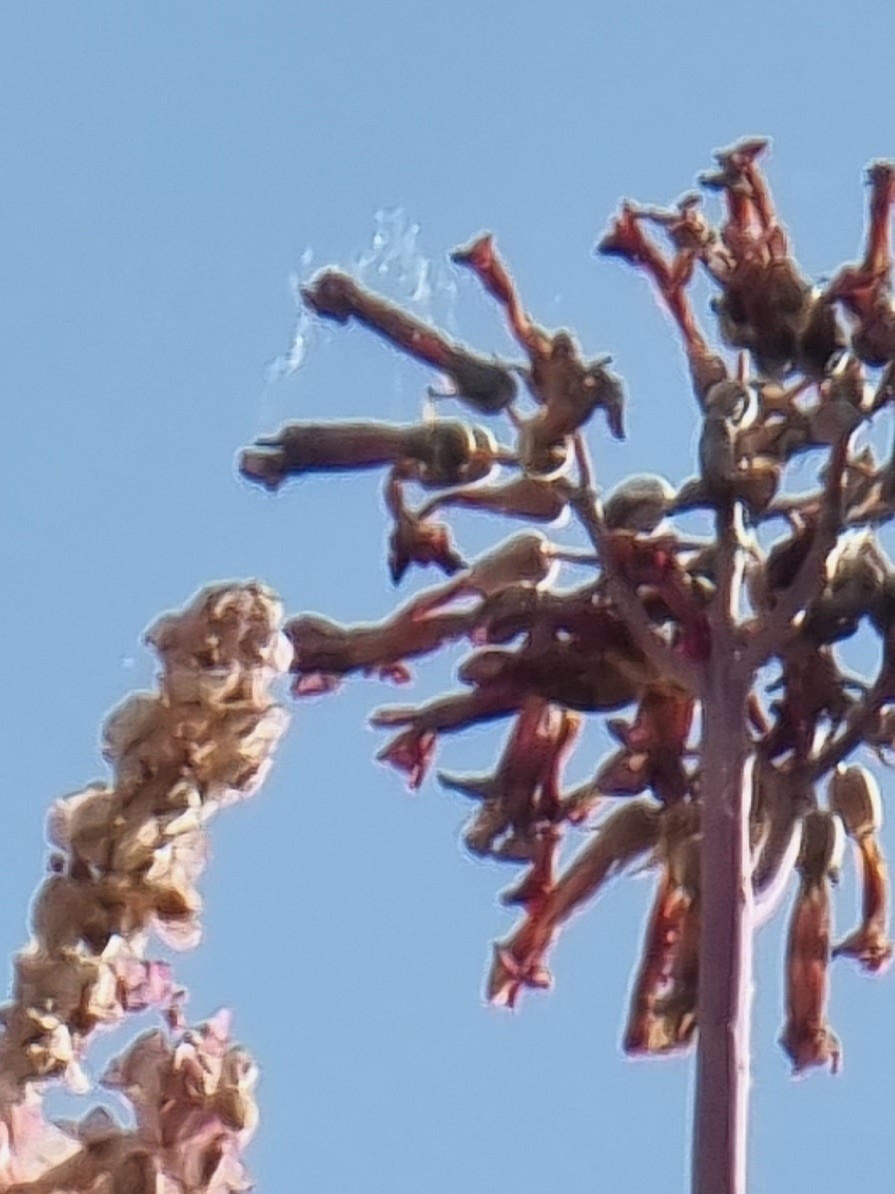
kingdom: Plantae
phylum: Tracheophyta
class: Magnoliopsida
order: Saxifragales
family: Crassulaceae
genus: Kalanchoe
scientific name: Kalanchoe houghtonii
